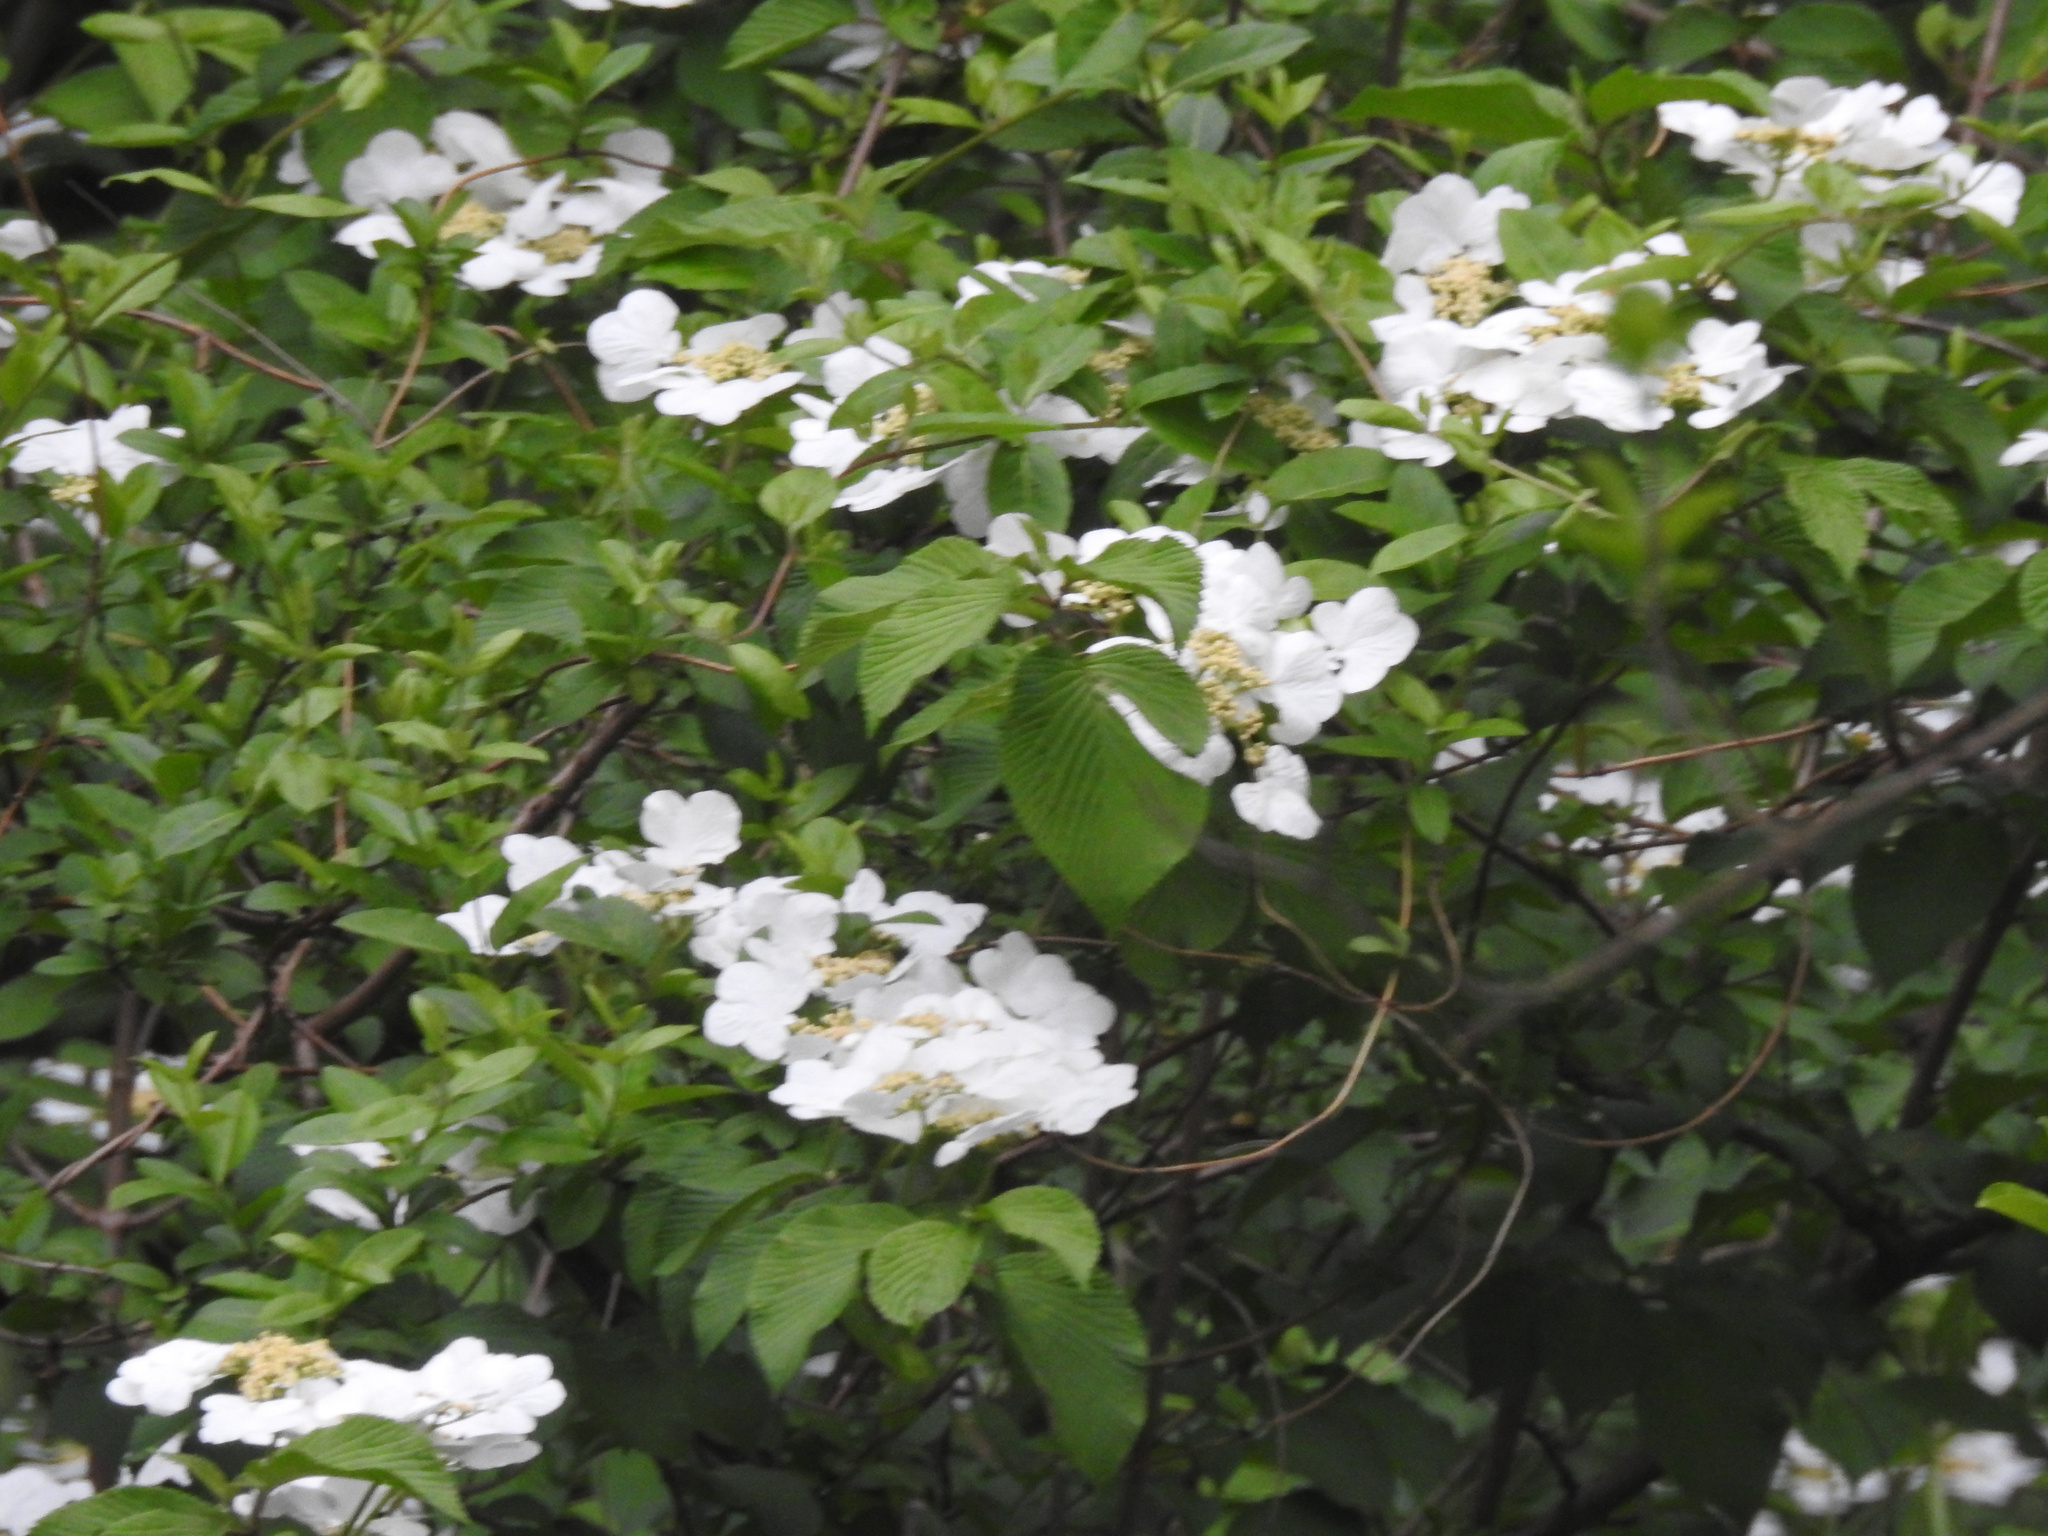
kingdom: Plantae
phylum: Tracheophyta
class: Magnoliopsida
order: Dipsacales
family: Viburnaceae
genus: Viburnum
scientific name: Viburnum plicatum
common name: Japanese snowball
